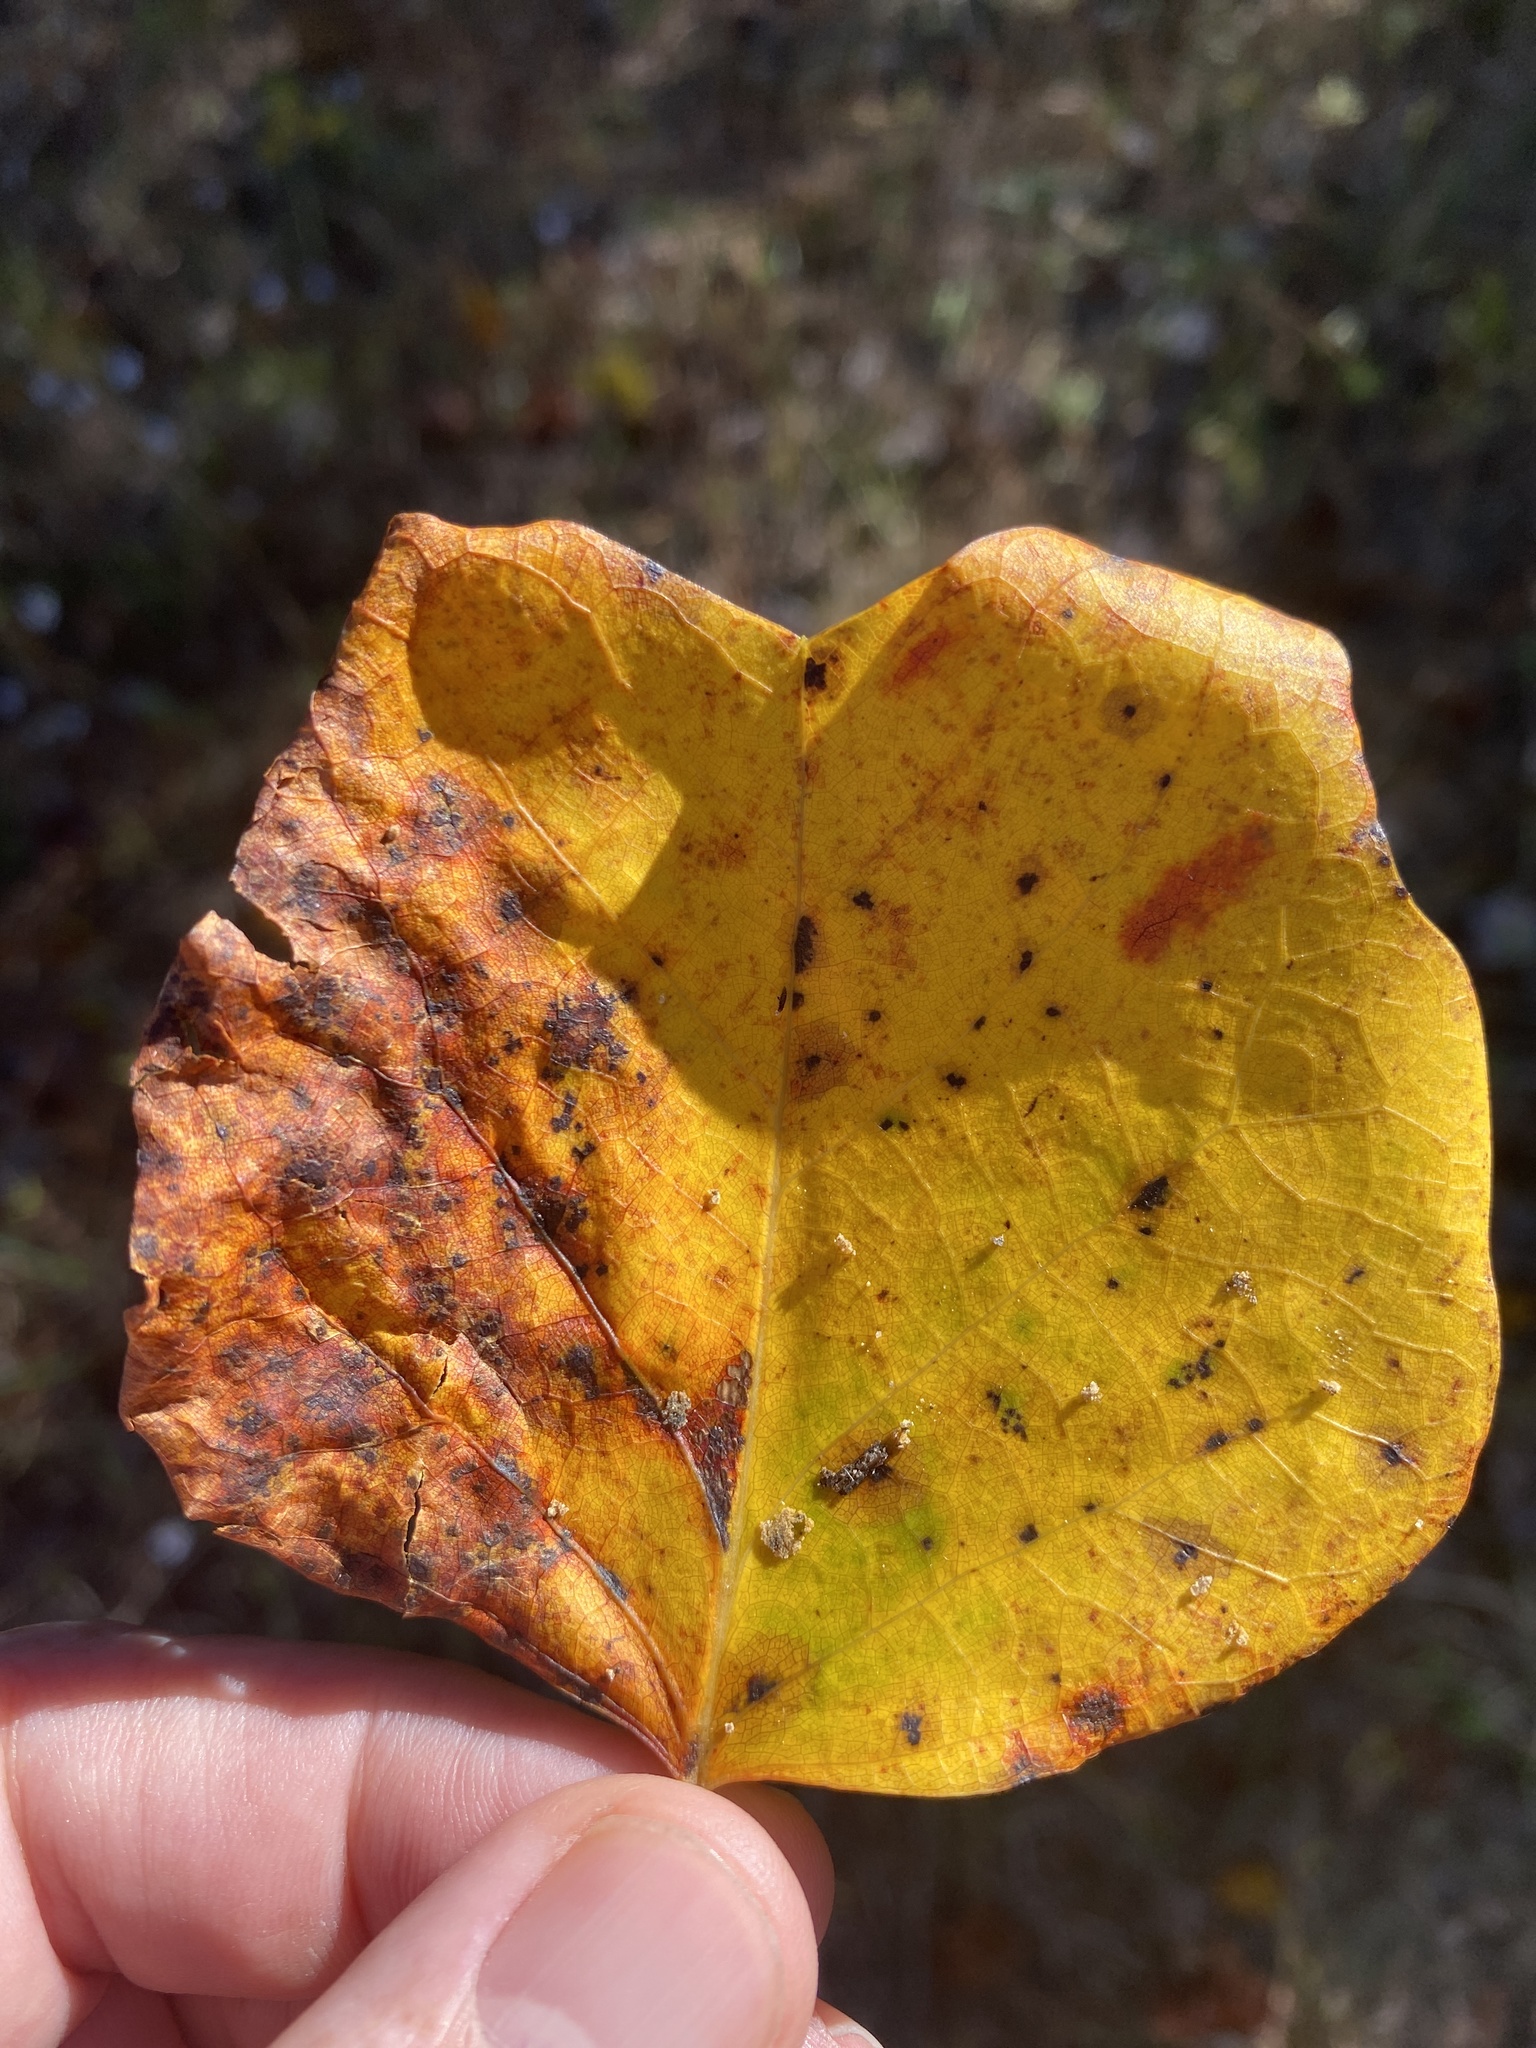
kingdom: Plantae
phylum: Tracheophyta
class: Magnoliopsida
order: Magnoliales
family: Magnoliaceae
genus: Liriodendron
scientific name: Liriodendron tulipifera
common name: Tulip tree
